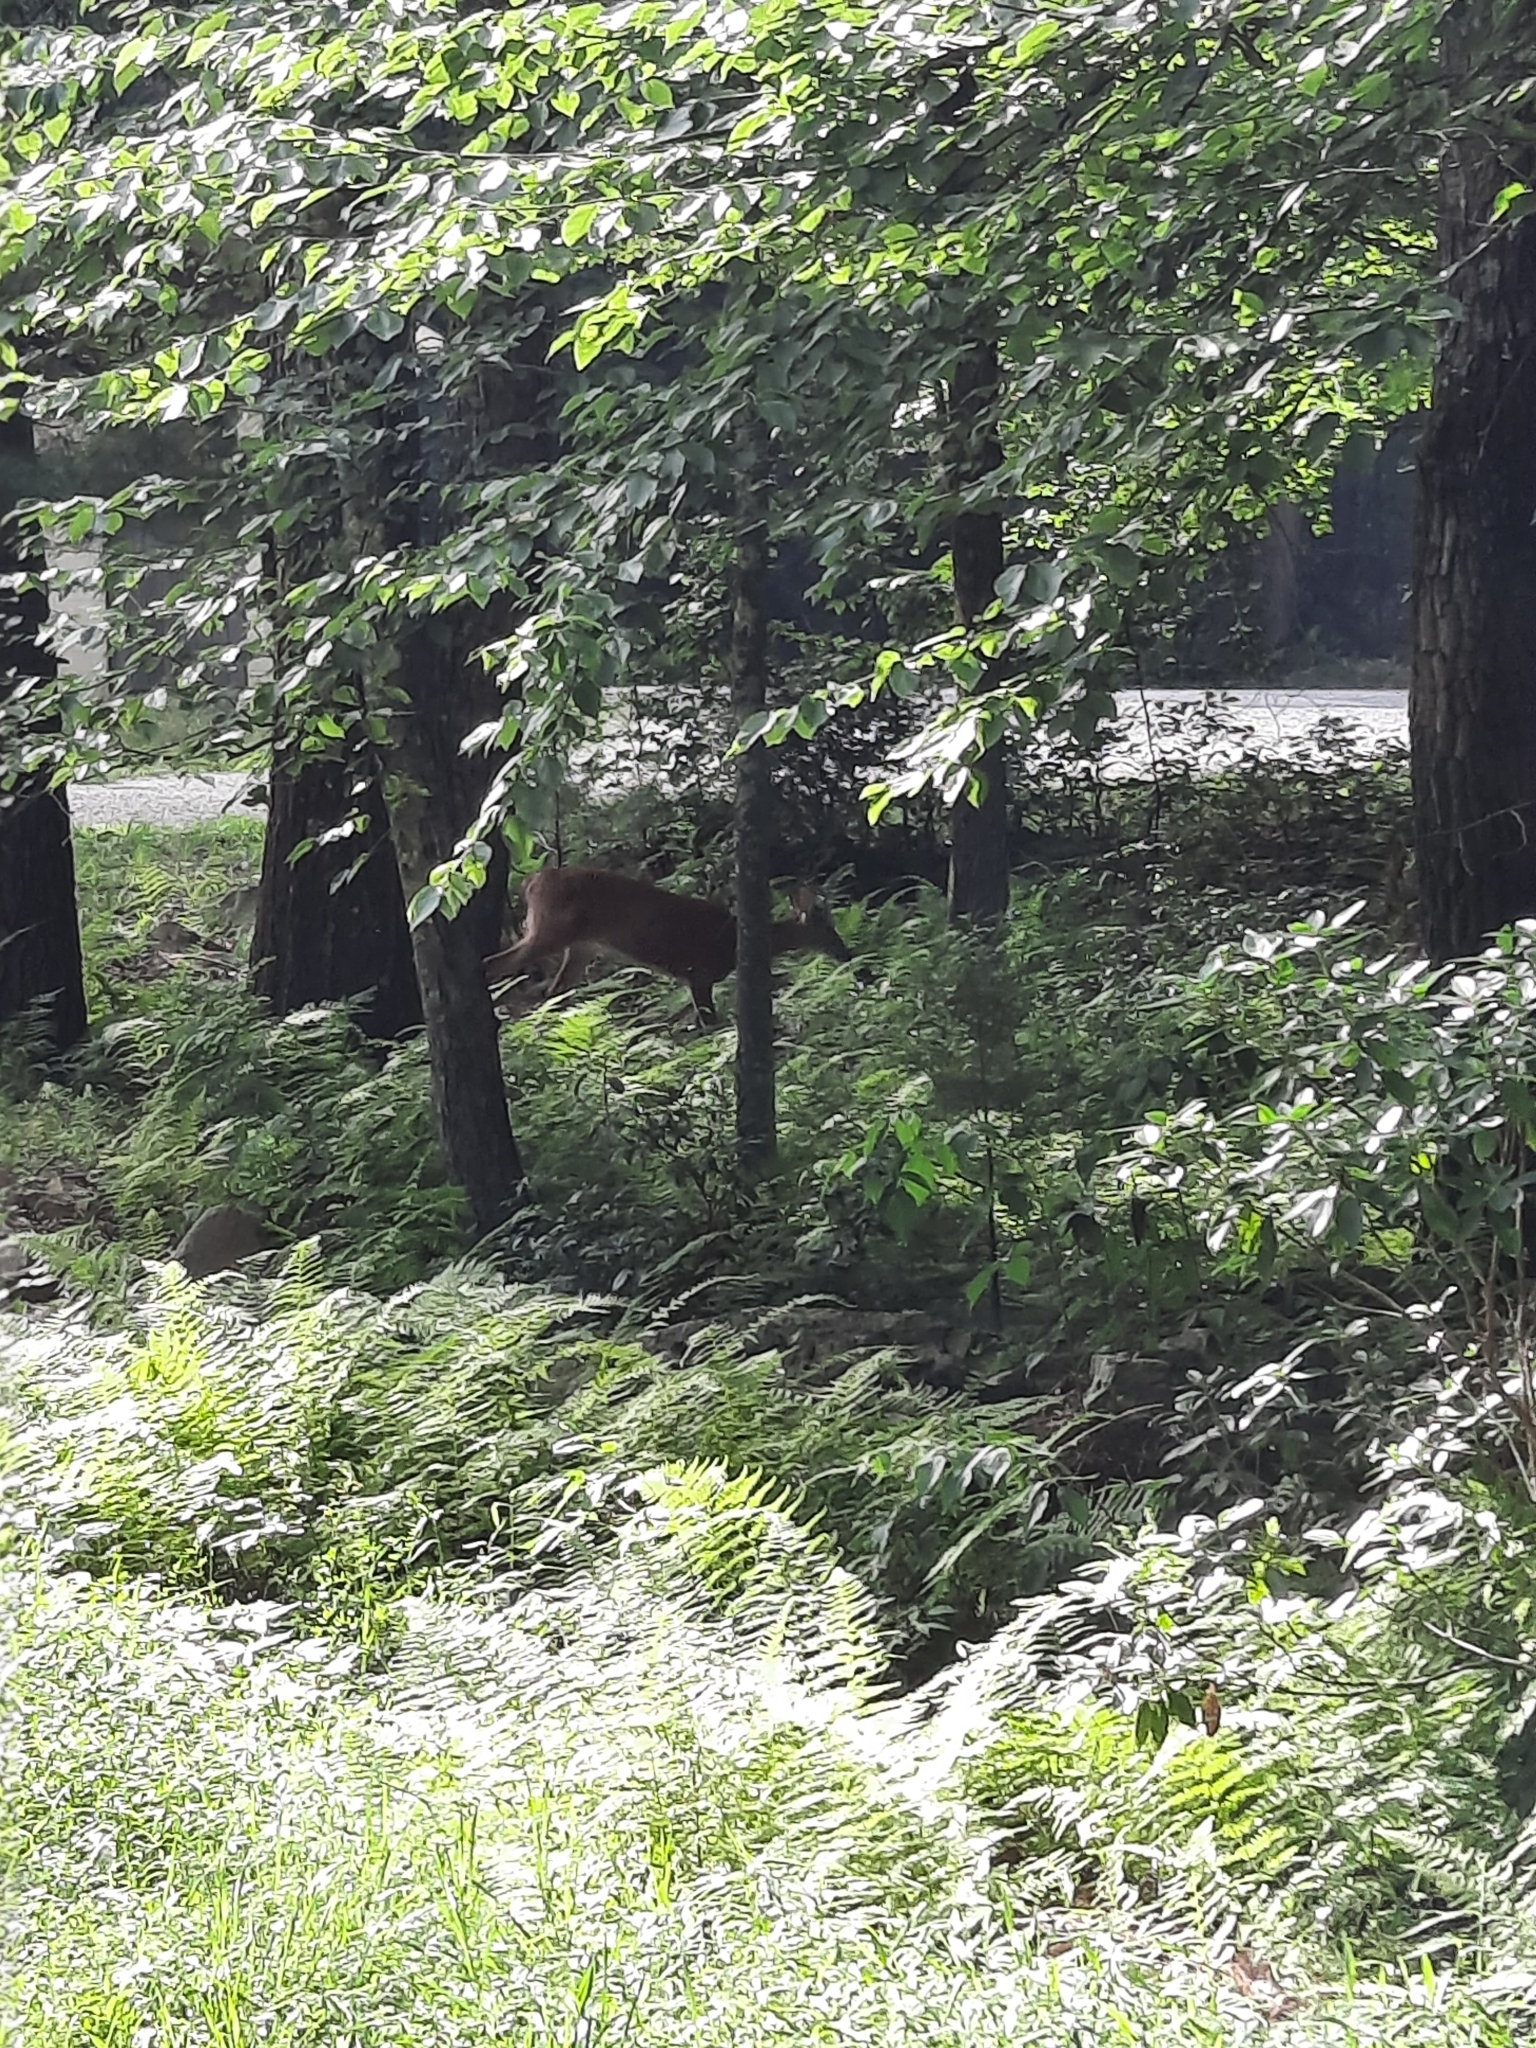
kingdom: Animalia
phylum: Chordata
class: Mammalia
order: Artiodactyla
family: Cervidae
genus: Odocoileus
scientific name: Odocoileus virginianus
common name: White-tailed deer
